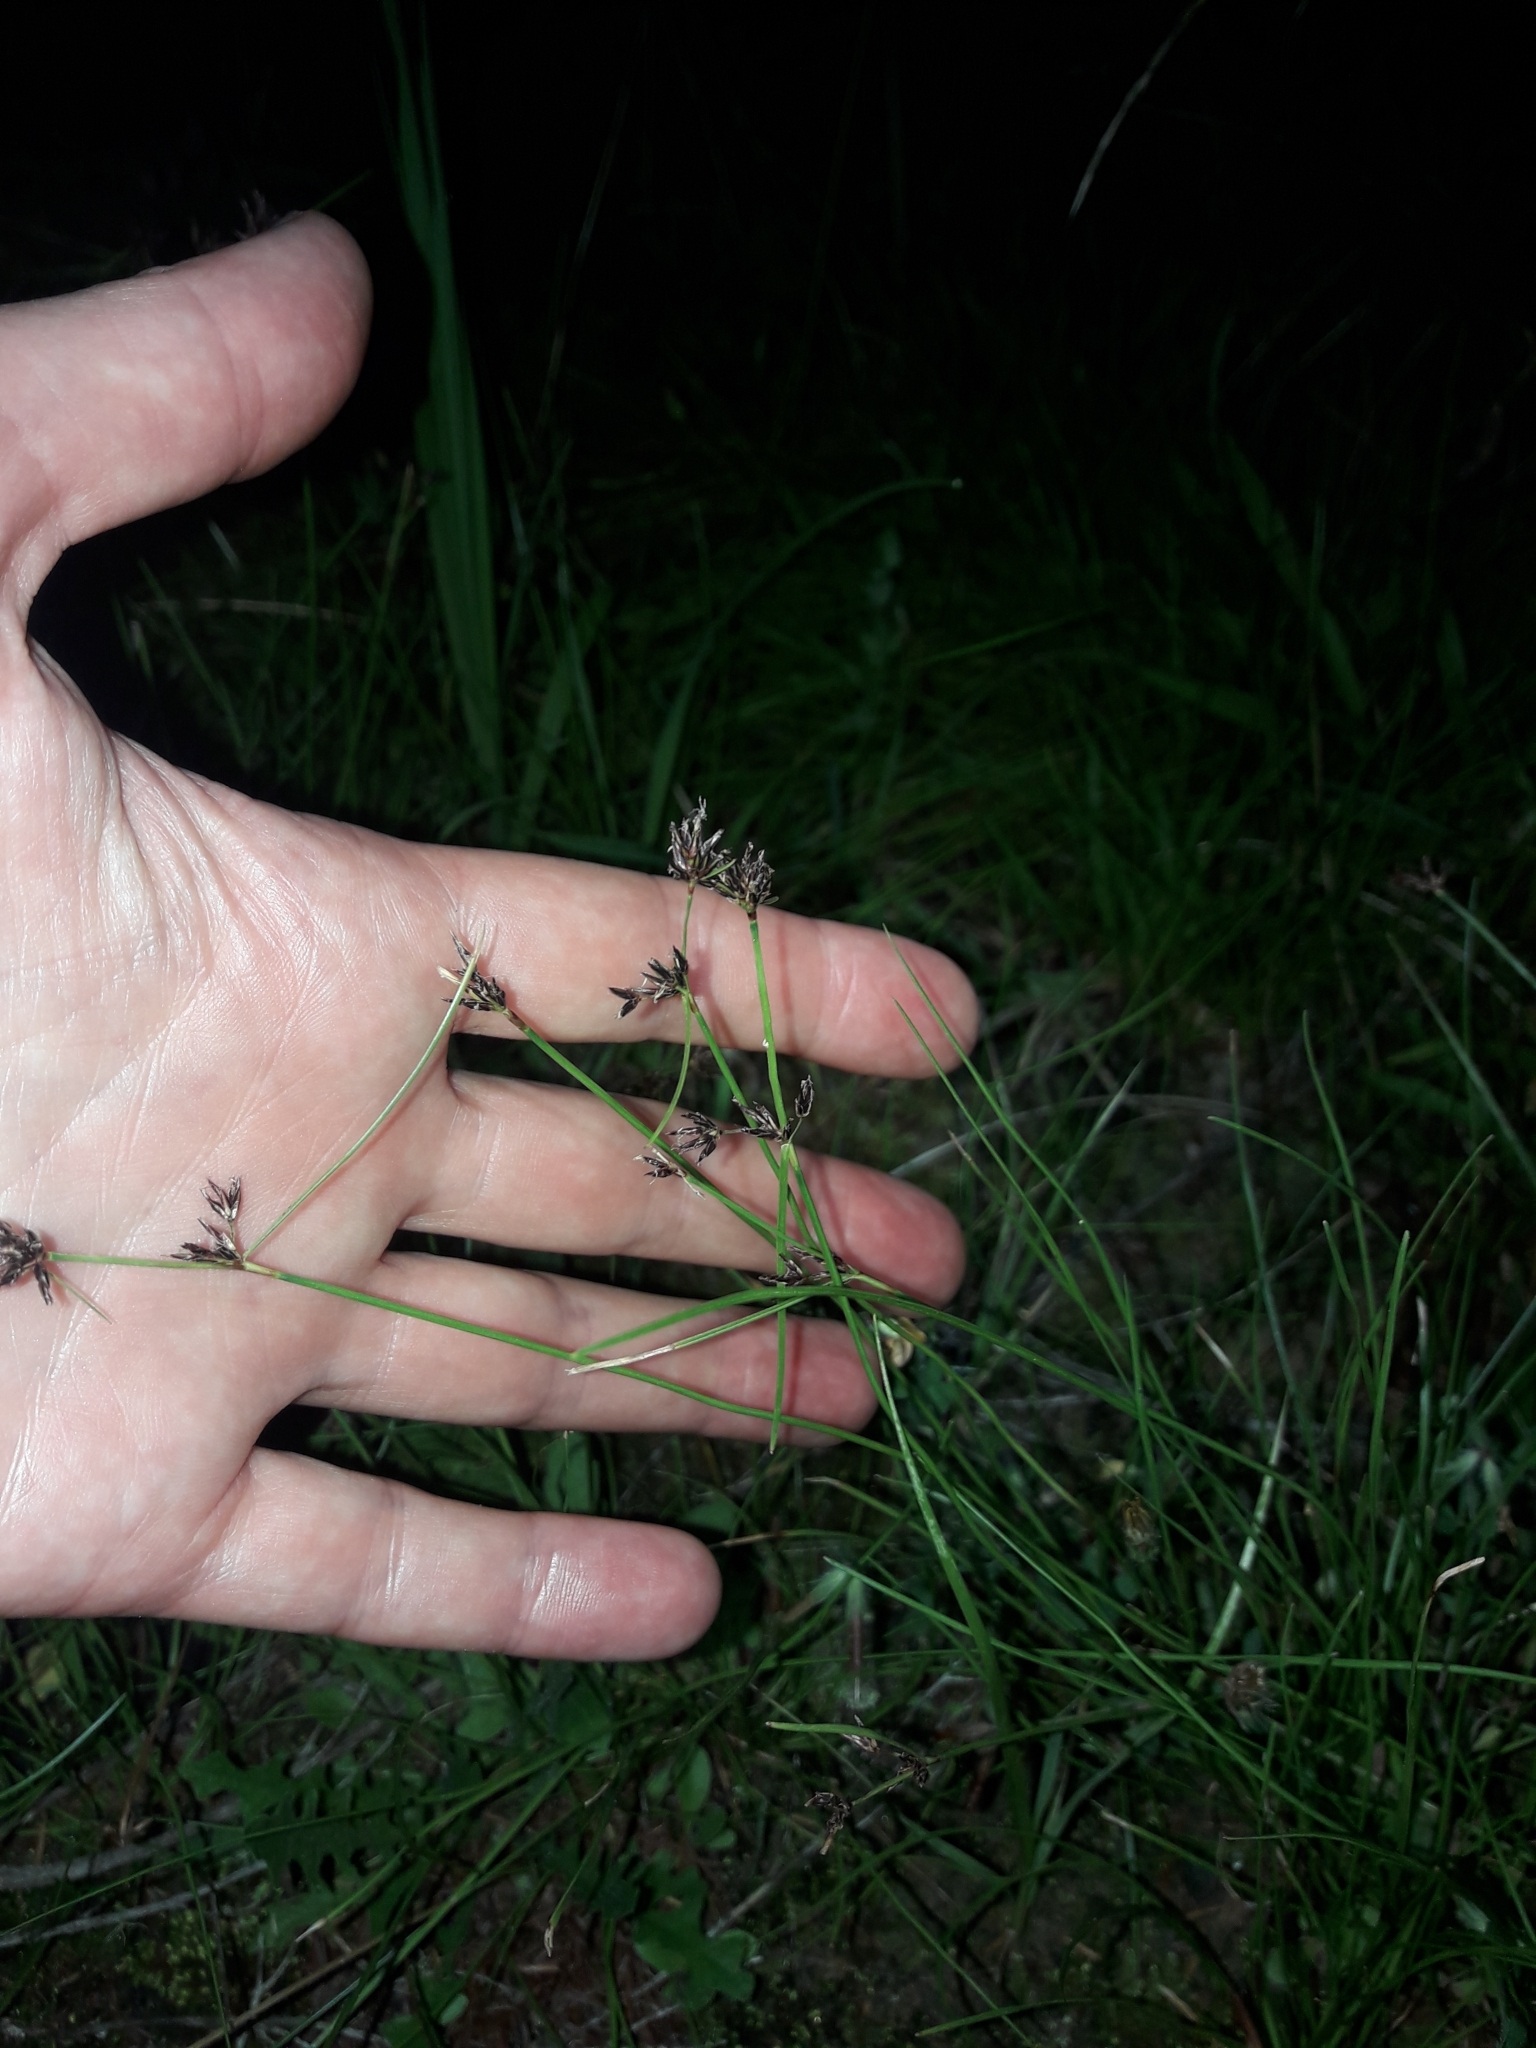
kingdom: Plantae
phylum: Tracheophyta
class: Liliopsida
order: Poales
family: Cyperaceae
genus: Schoenus
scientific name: Schoenus apogon
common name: Smooth bogrush
